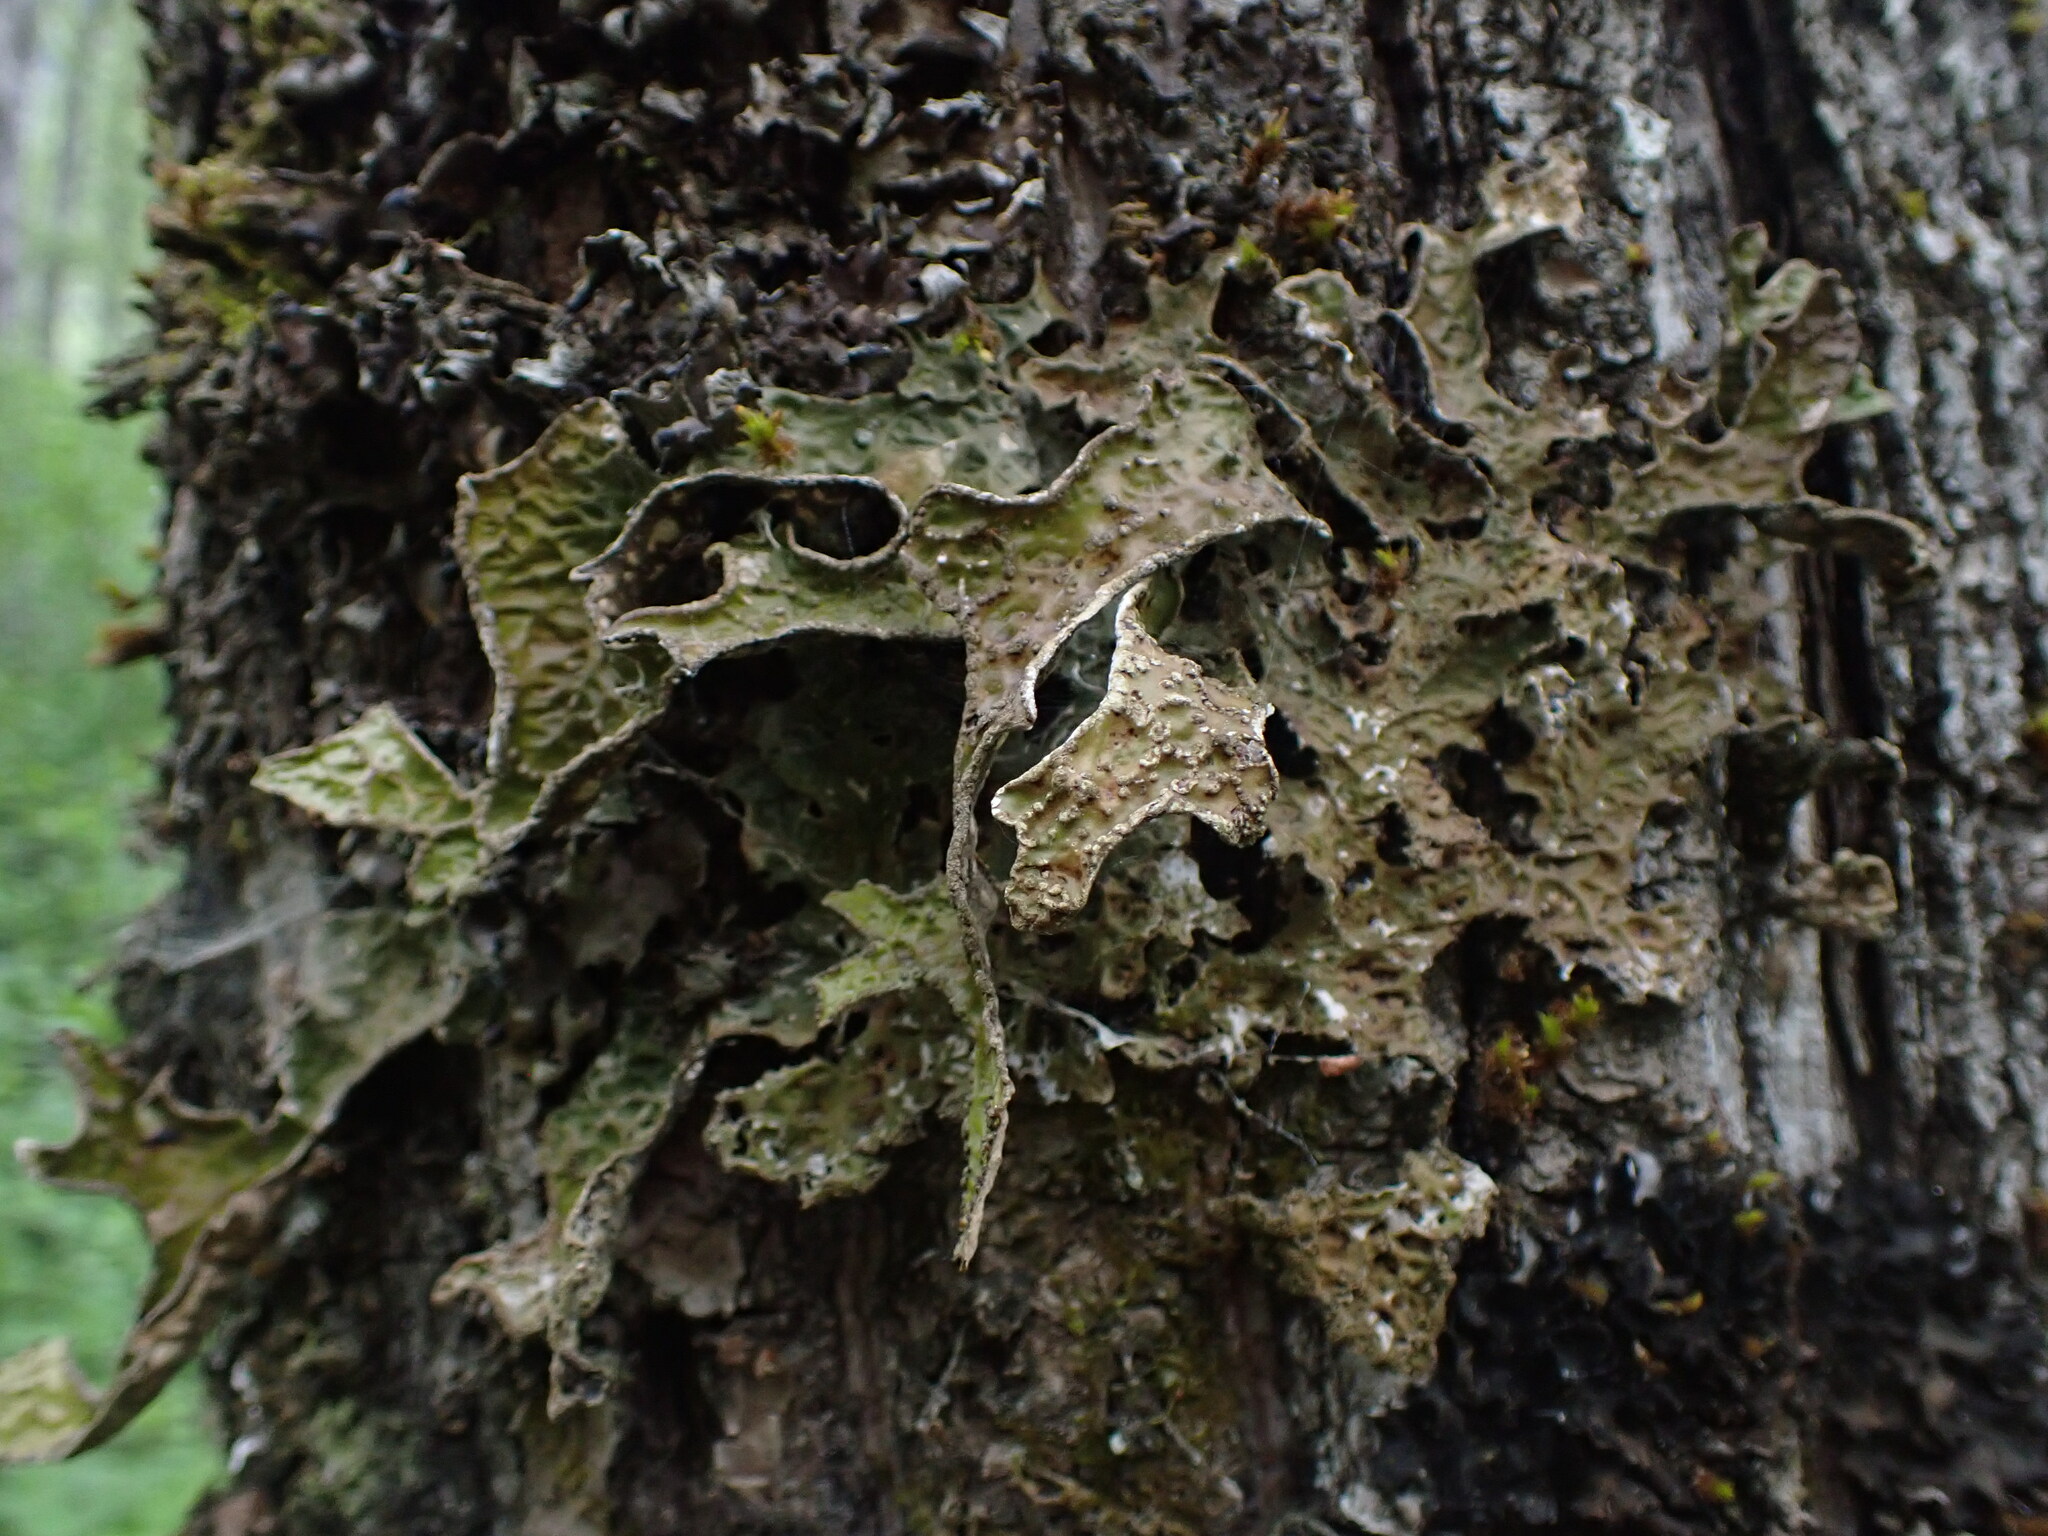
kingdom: Fungi
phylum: Ascomycota
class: Lecanoromycetes
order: Peltigerales
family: Lobariaceae
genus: Lobaria
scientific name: Lobaria pulmonaria
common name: Lungwort
